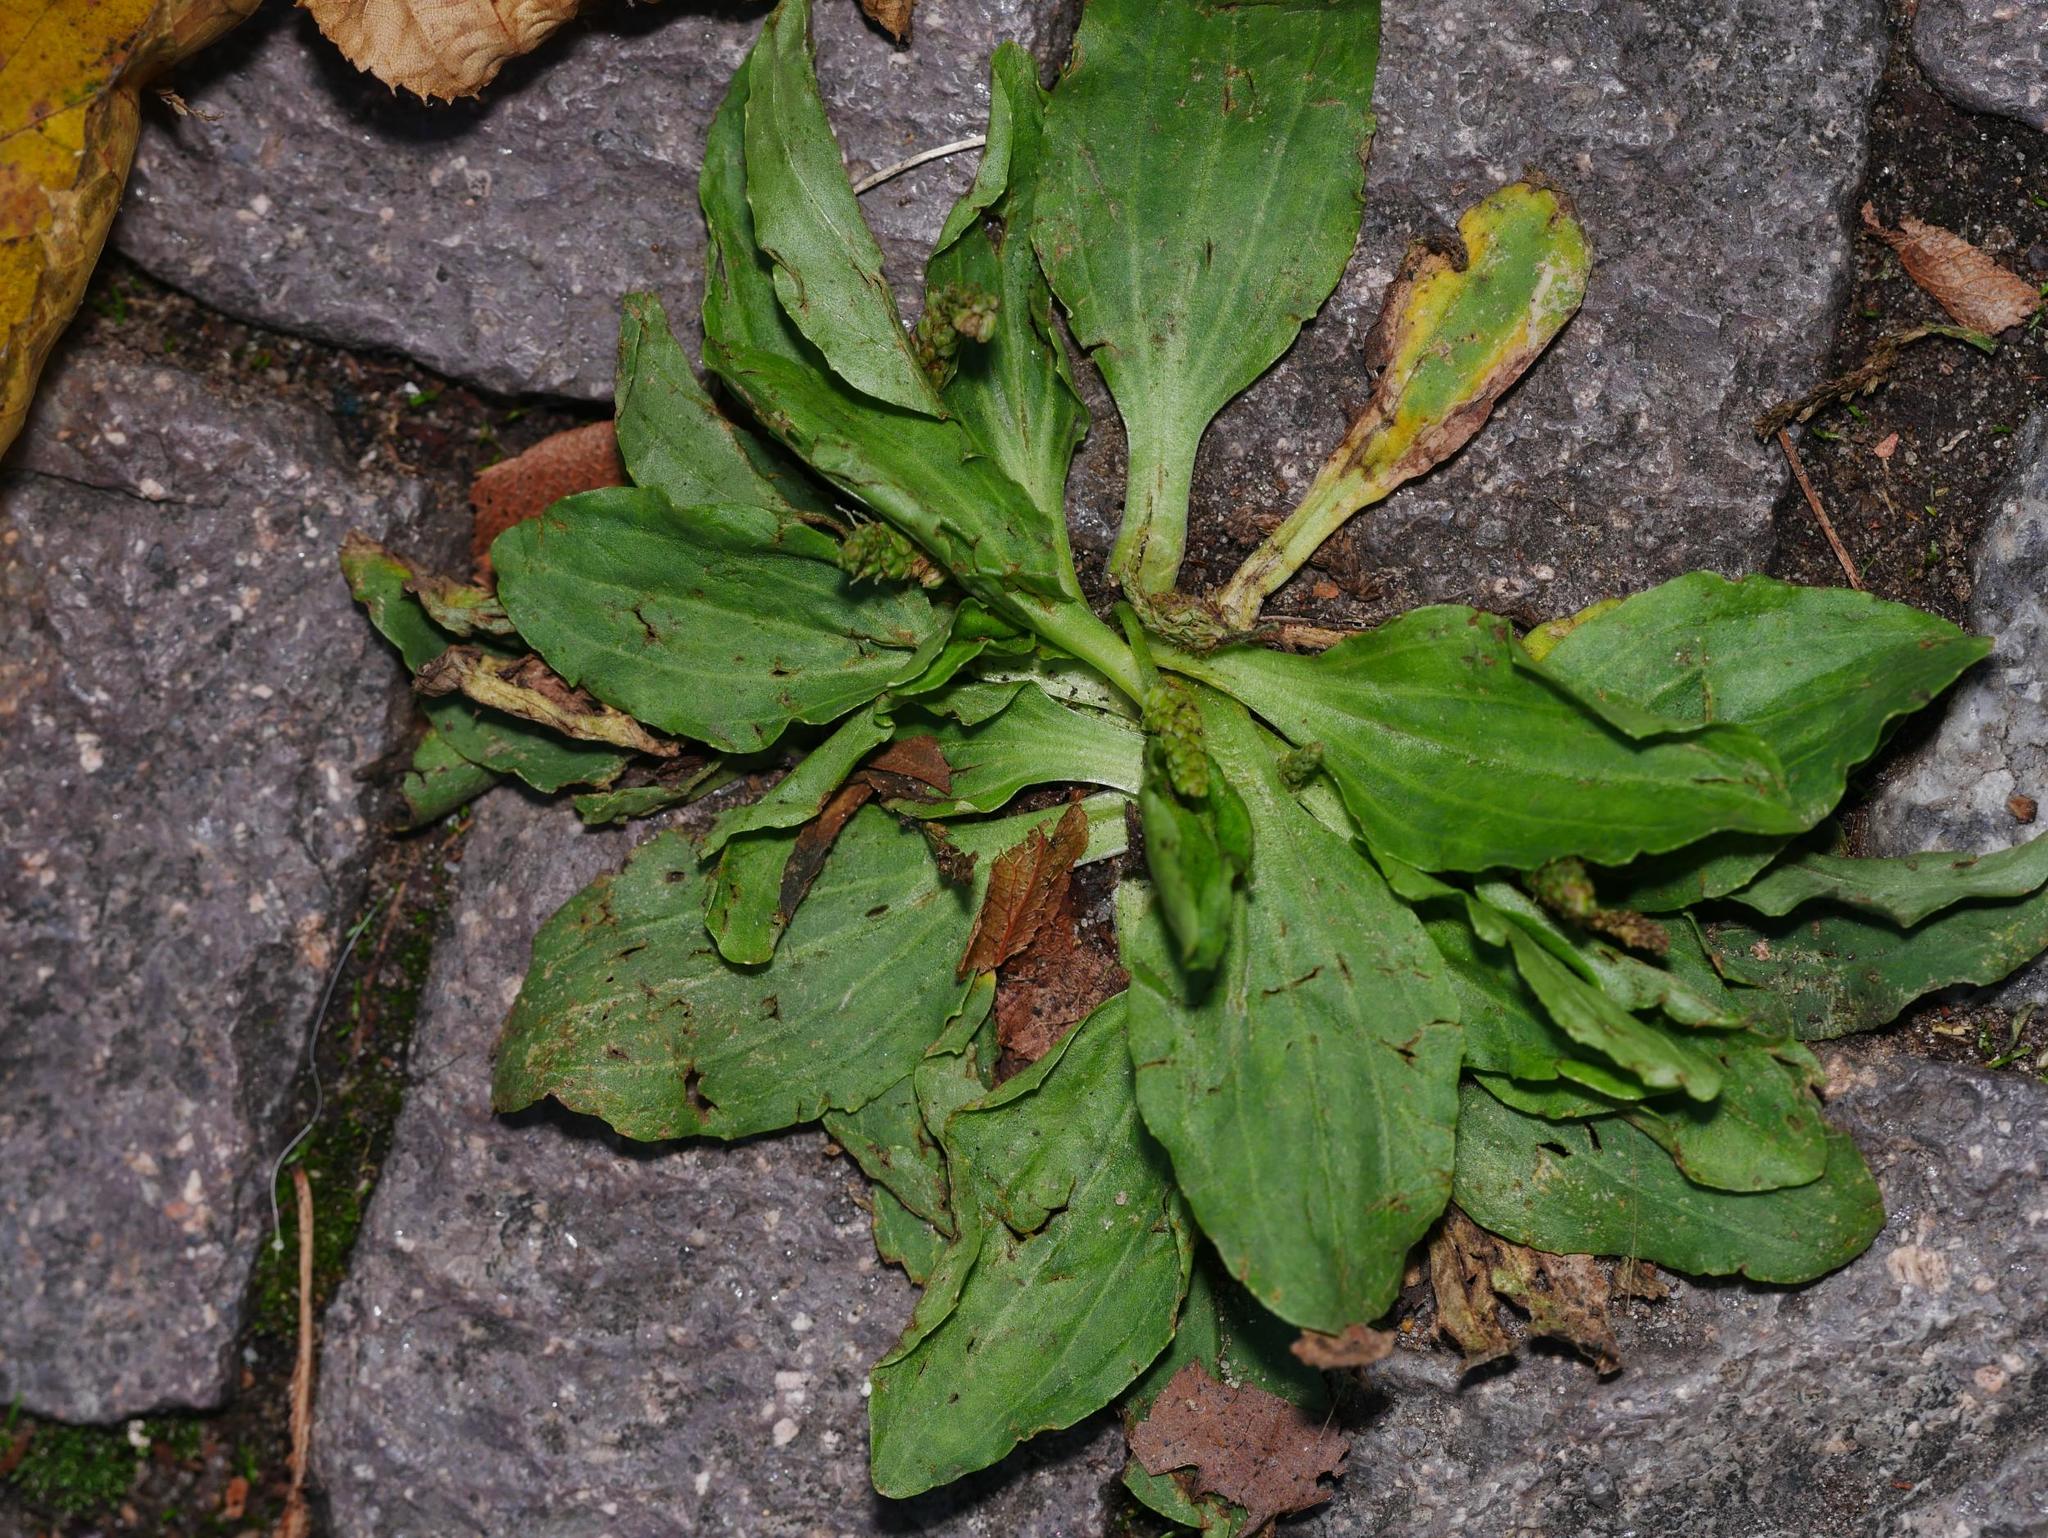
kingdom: Plantae
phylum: Tracheophyta
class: Magnoliopsida
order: Lamiales
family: Plantaginaceae
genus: Plantago
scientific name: Plantago major
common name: Common plantain
